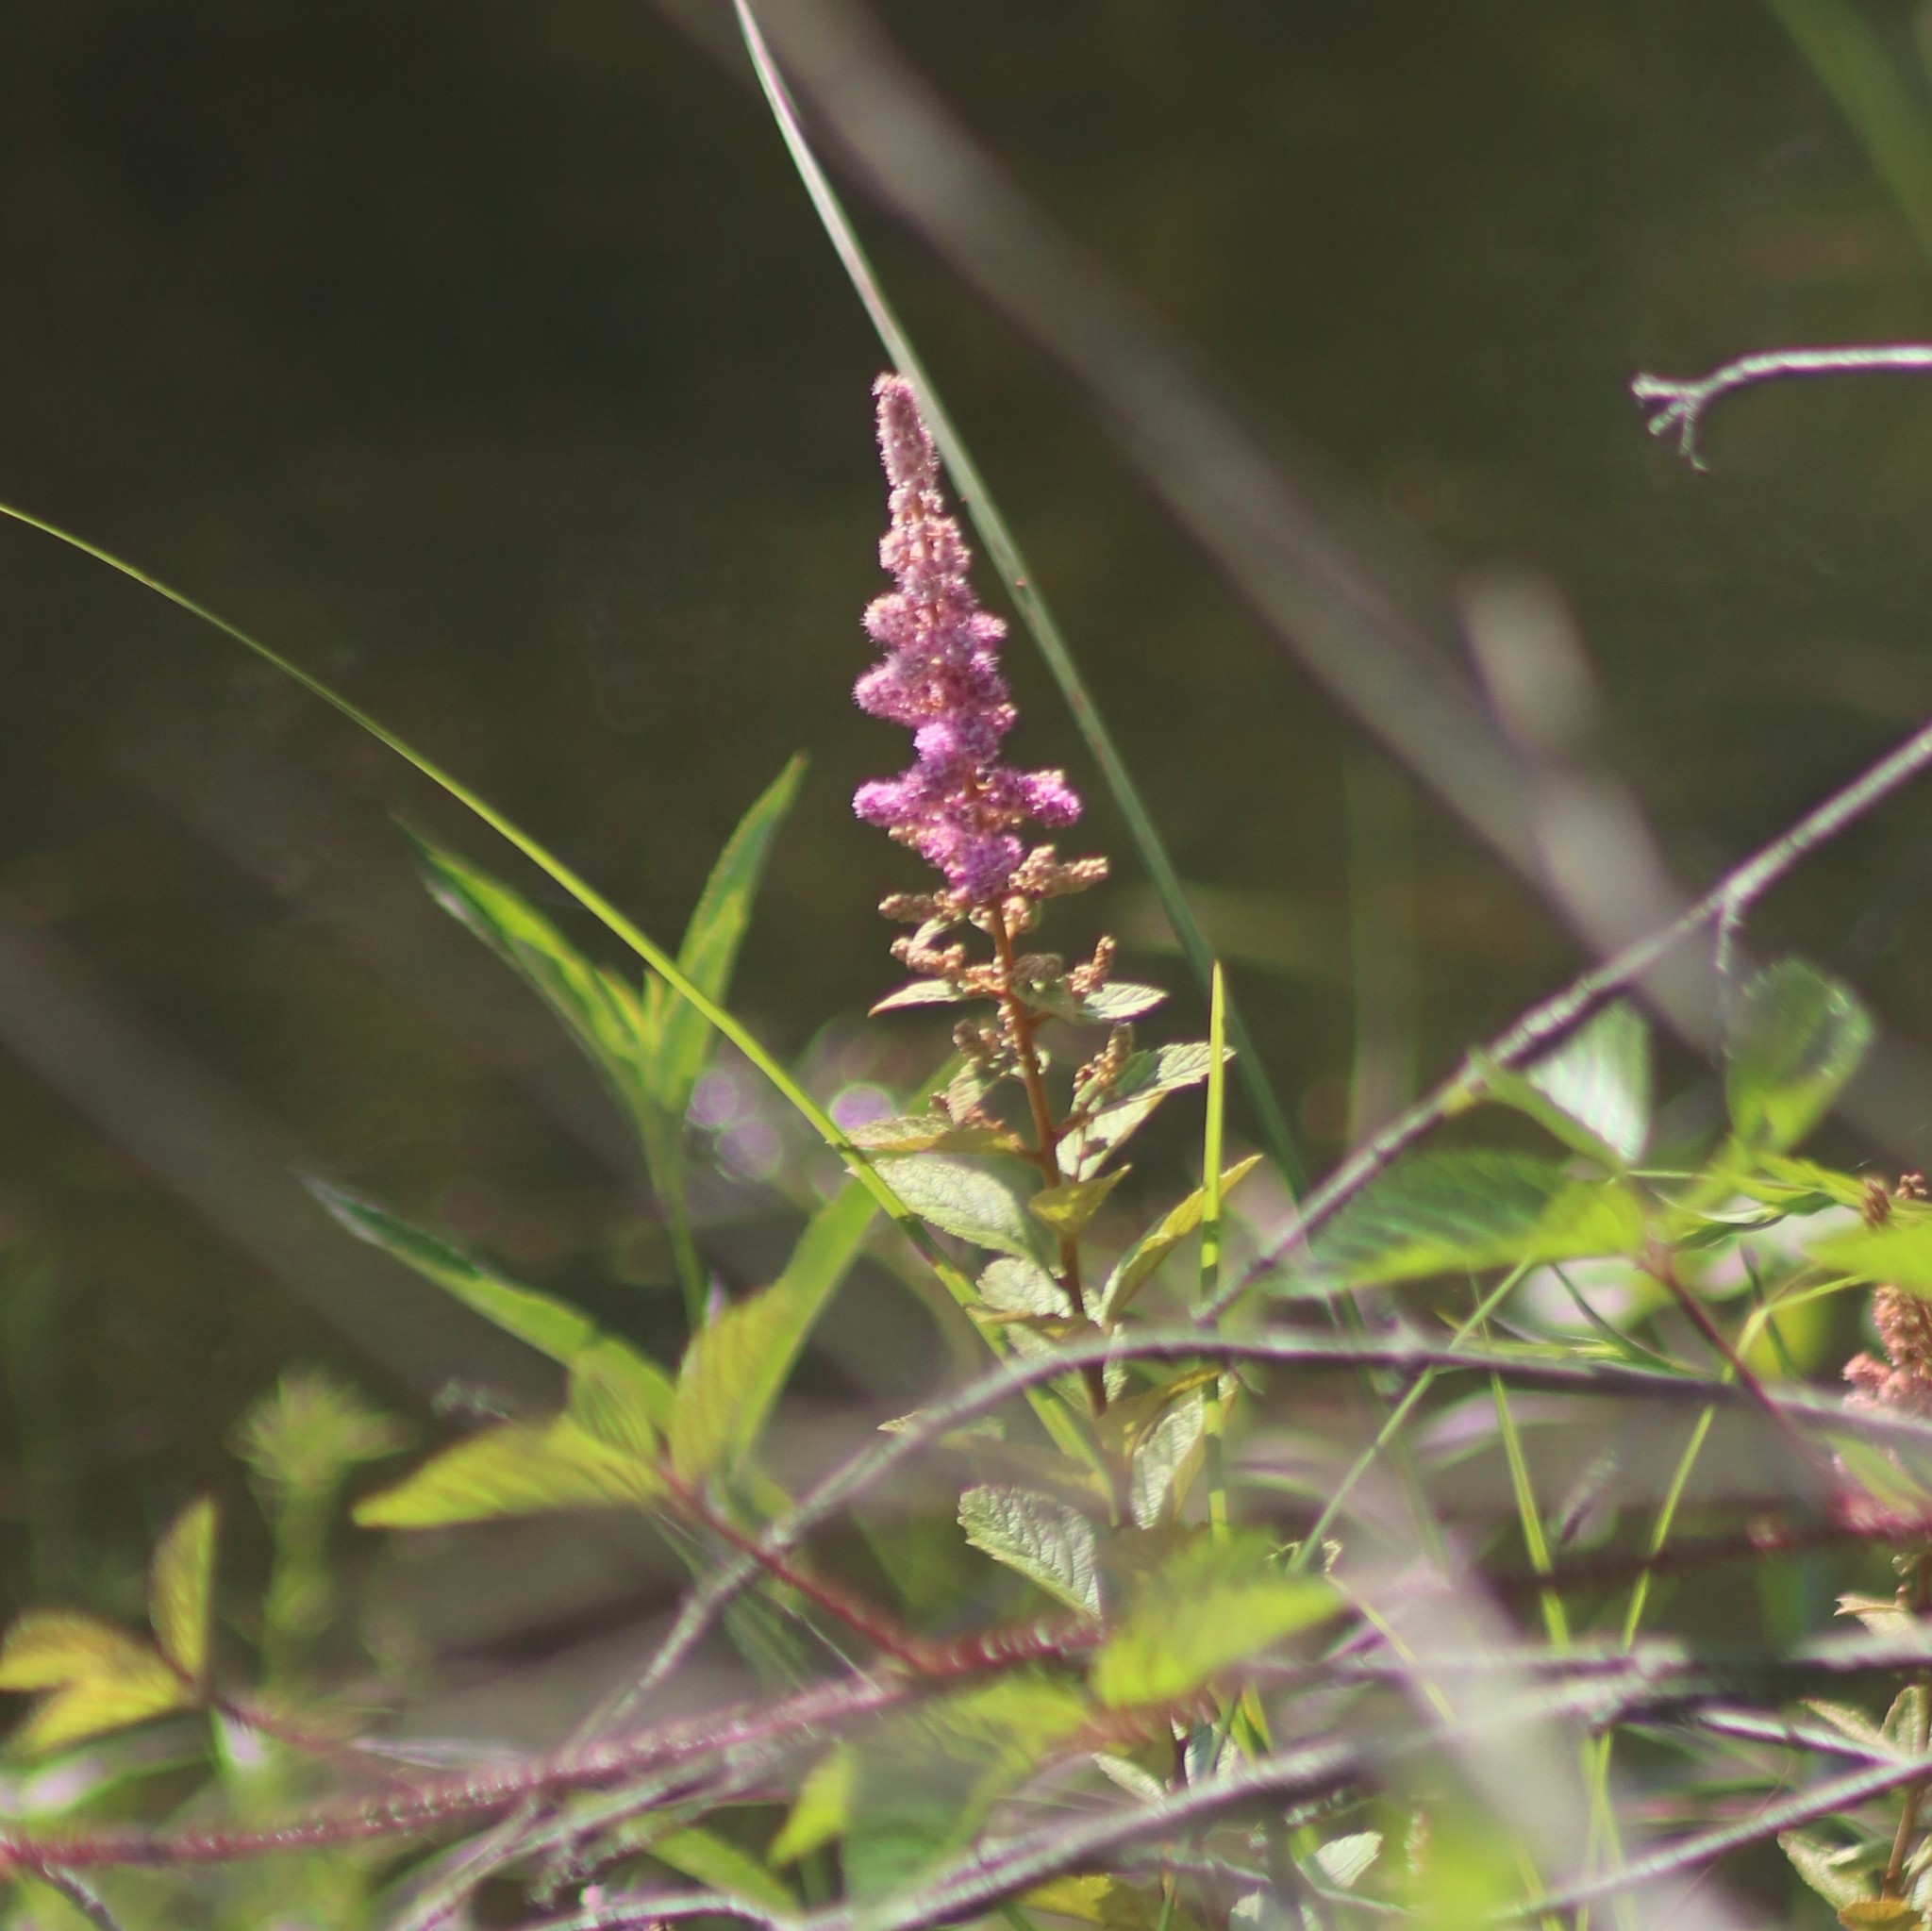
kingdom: Plantae
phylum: Tracheophyta
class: Magnoliopsida
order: Rosales
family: Rosaceae
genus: Spiraea
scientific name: Spiraea tomentosa
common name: Hardhack
